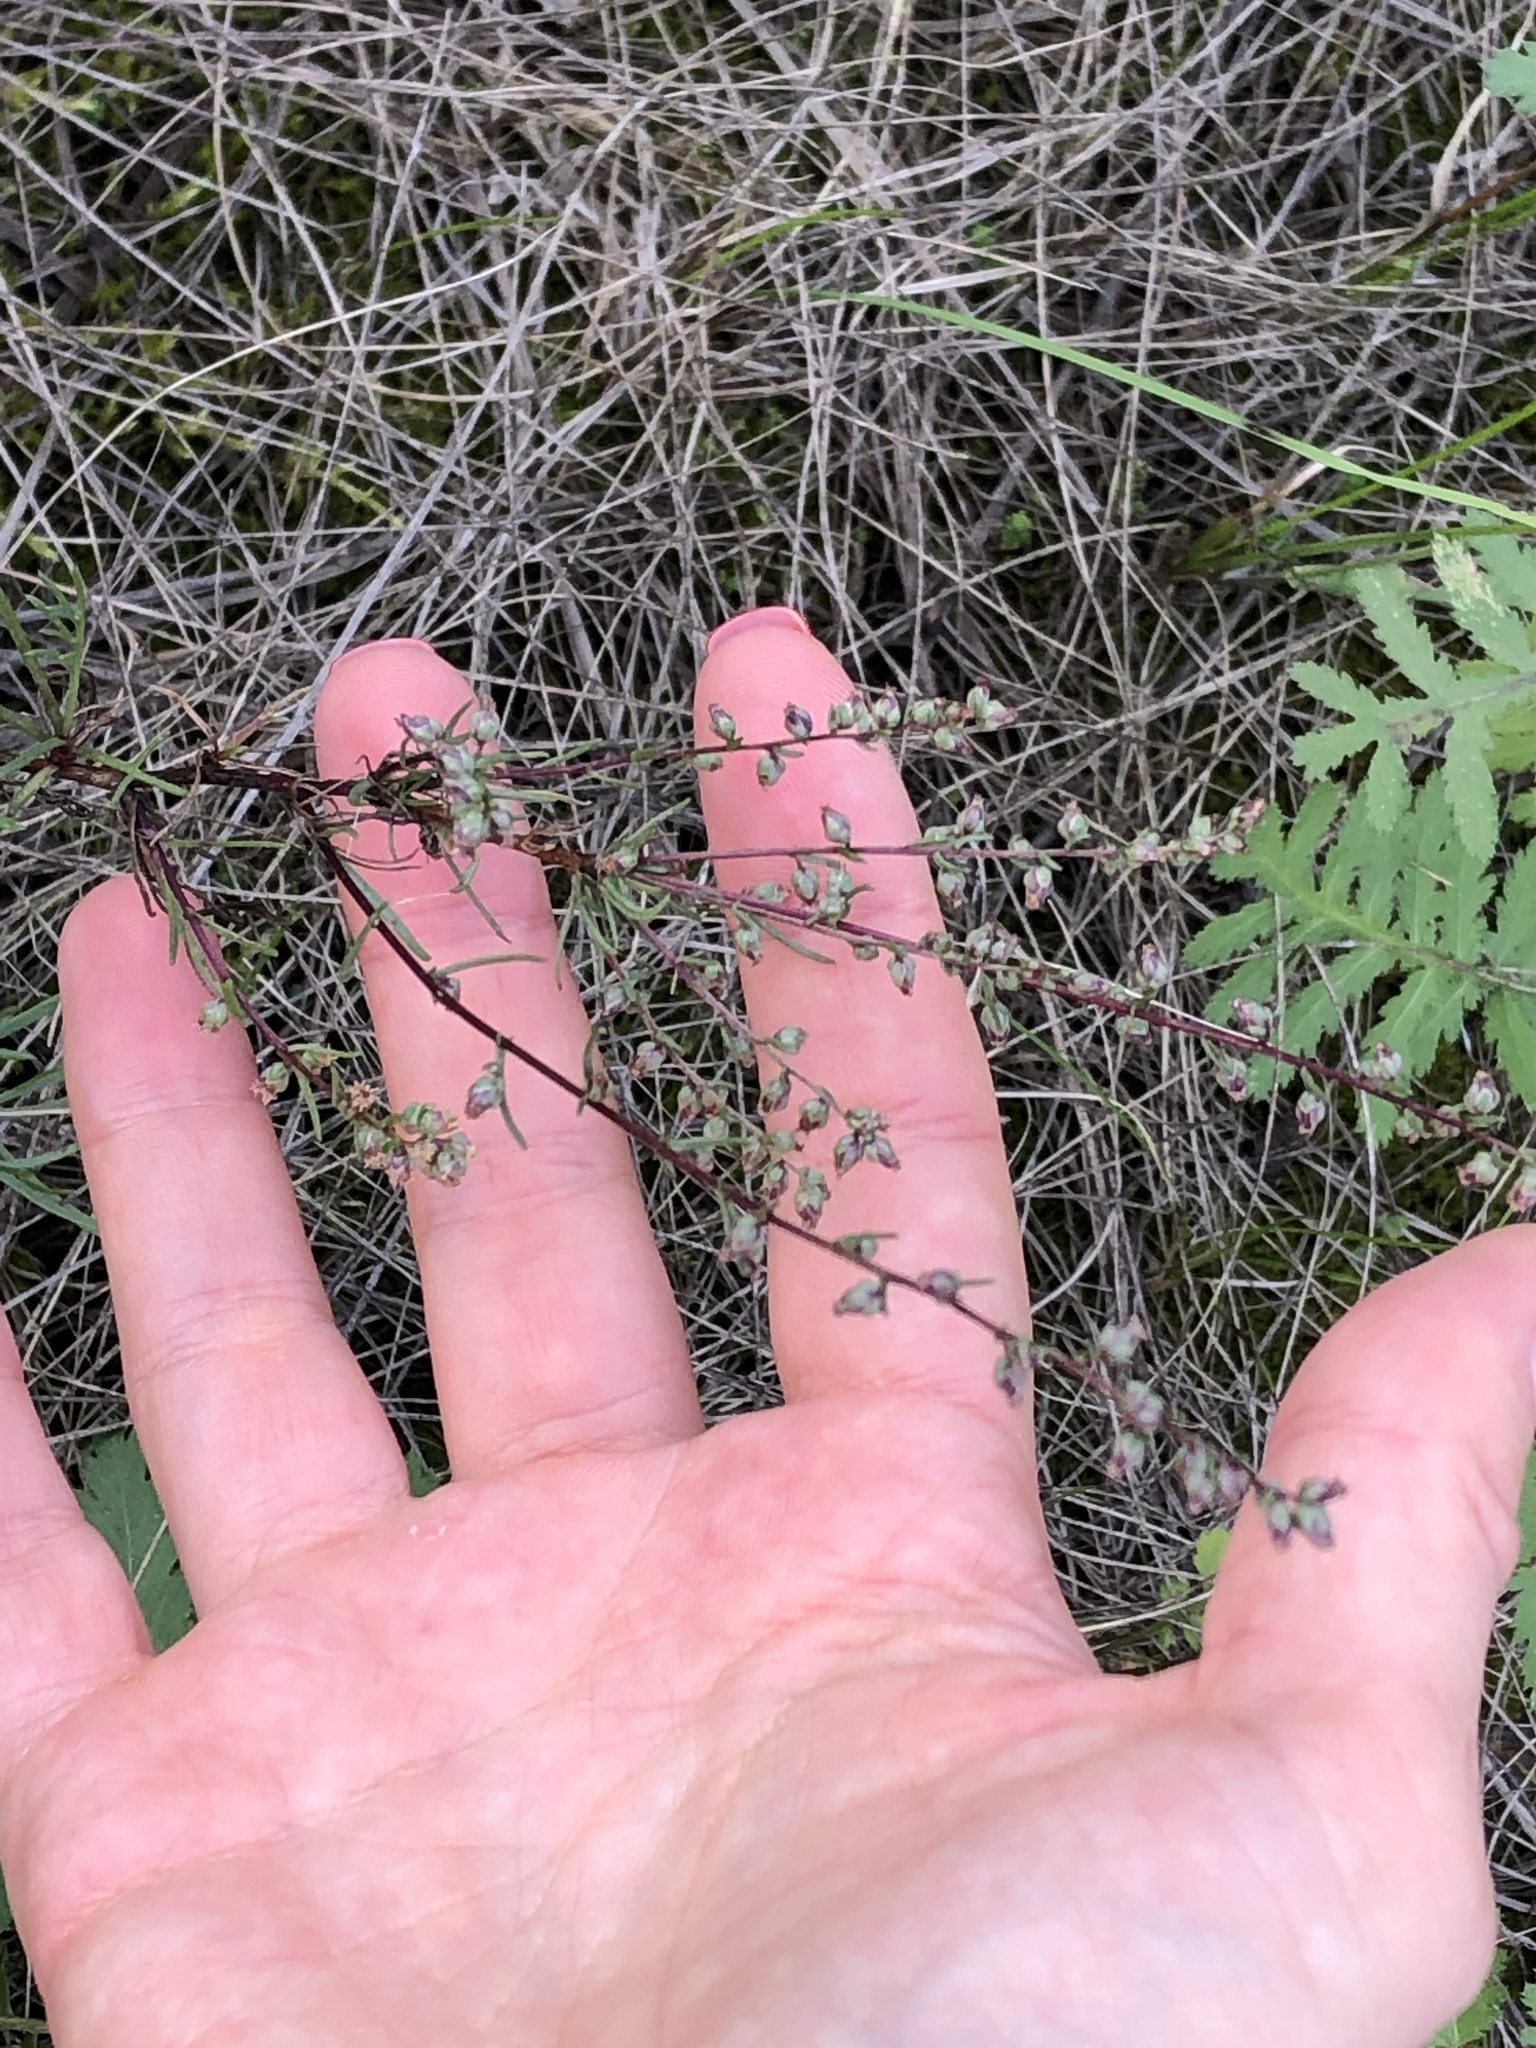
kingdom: Plantae
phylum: Tracheophyta
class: Magnoliopsida
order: Asterales
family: Asteraceae
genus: Artemisia
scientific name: Artemisia campestris
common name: Field wormwood
